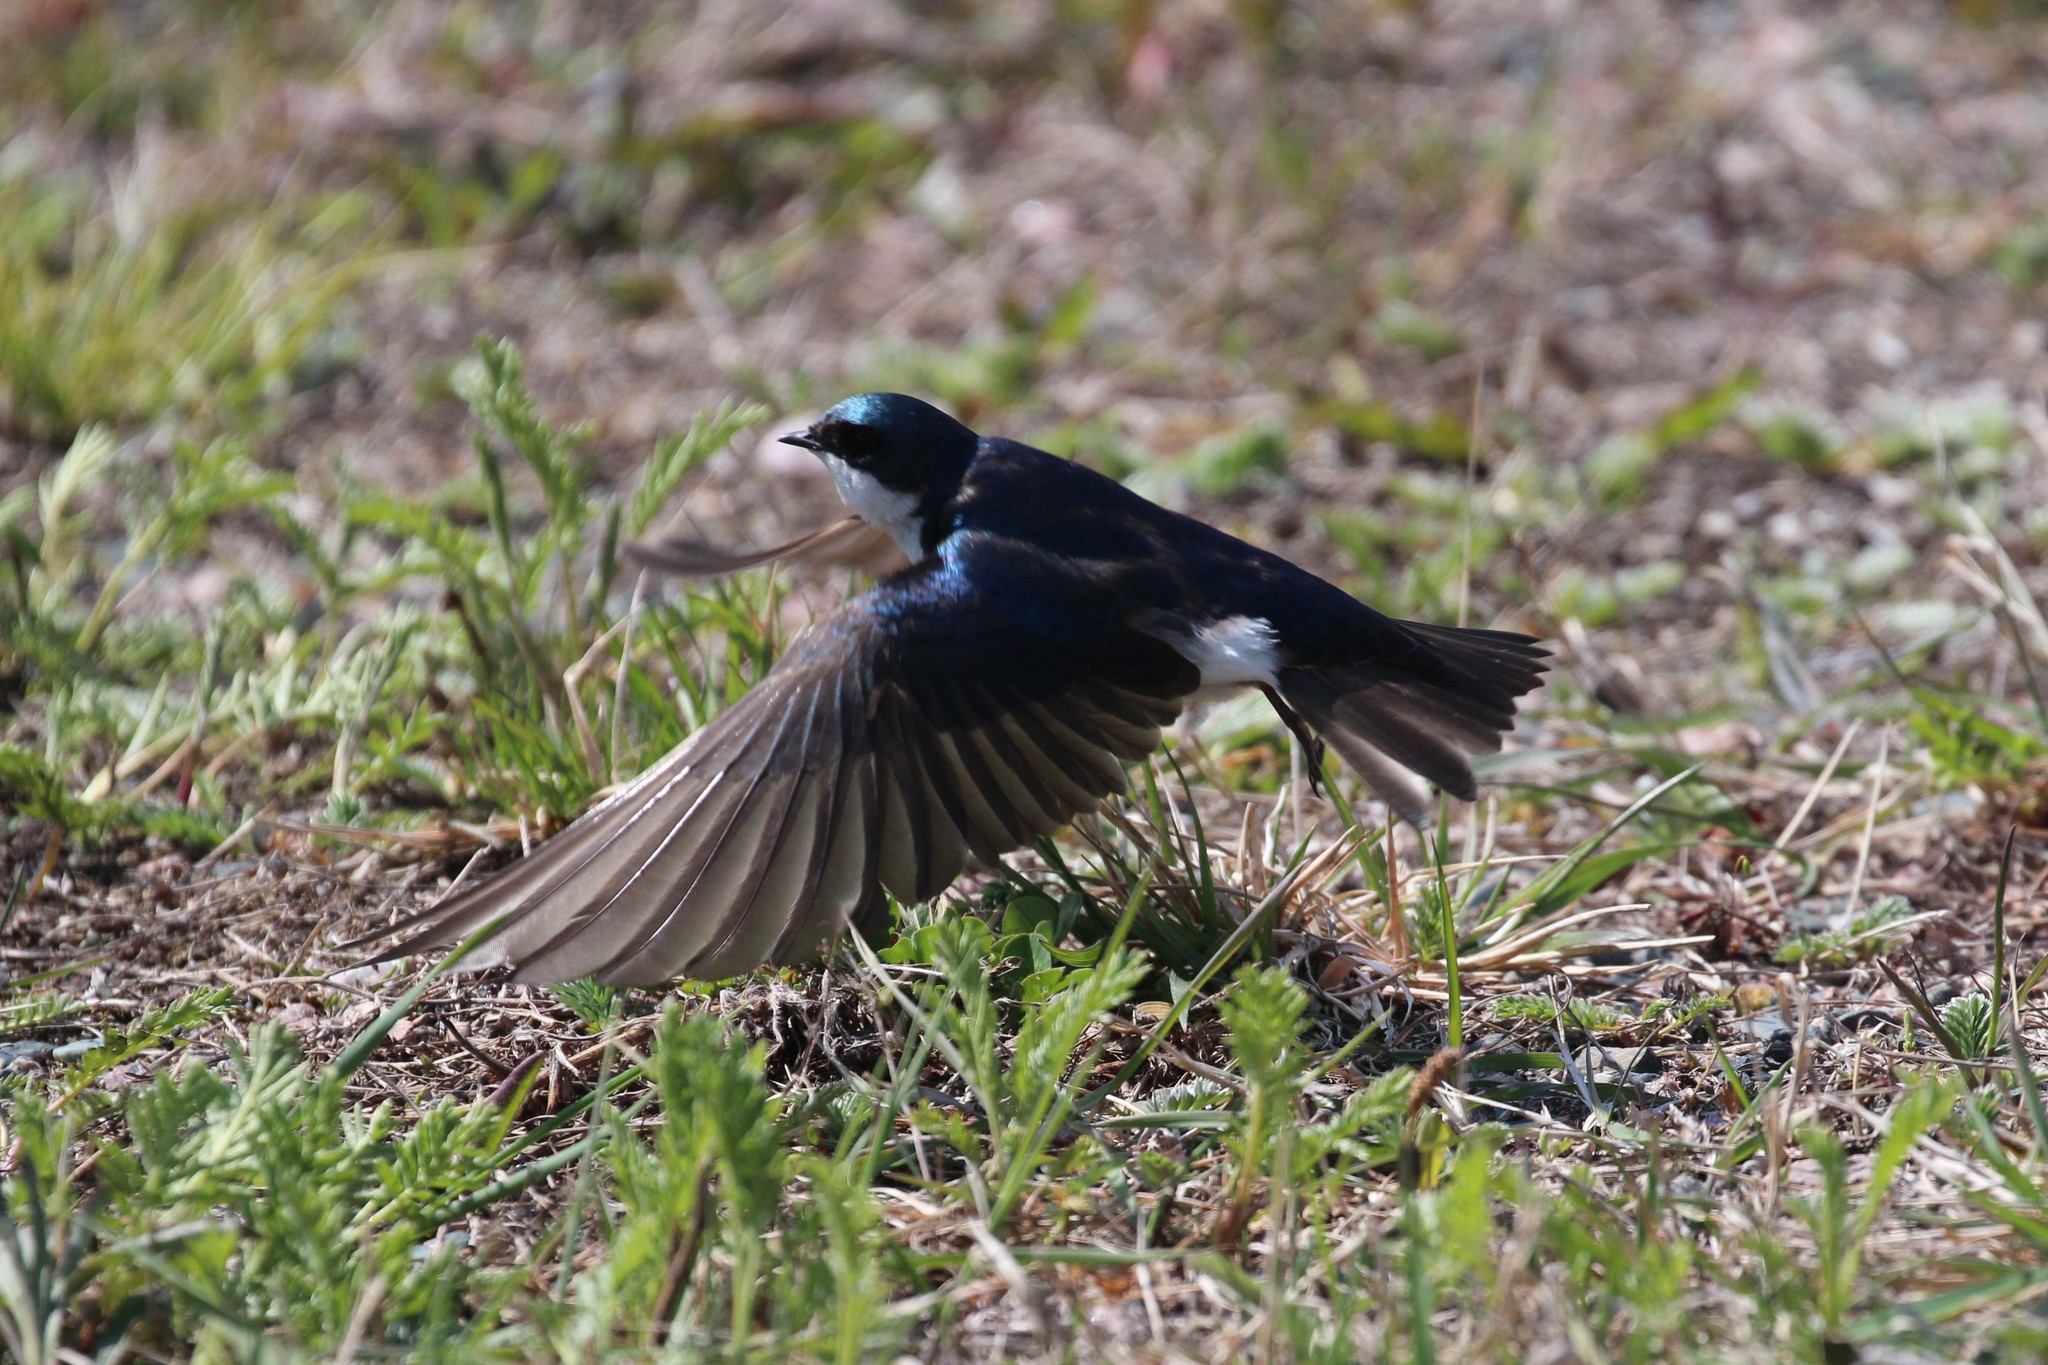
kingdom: Animalia
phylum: Chordata
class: Aves
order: Passeriformes
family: Hirundinidae
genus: Tachycineta
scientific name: Tachycineta bicolor
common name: Tree swallow
